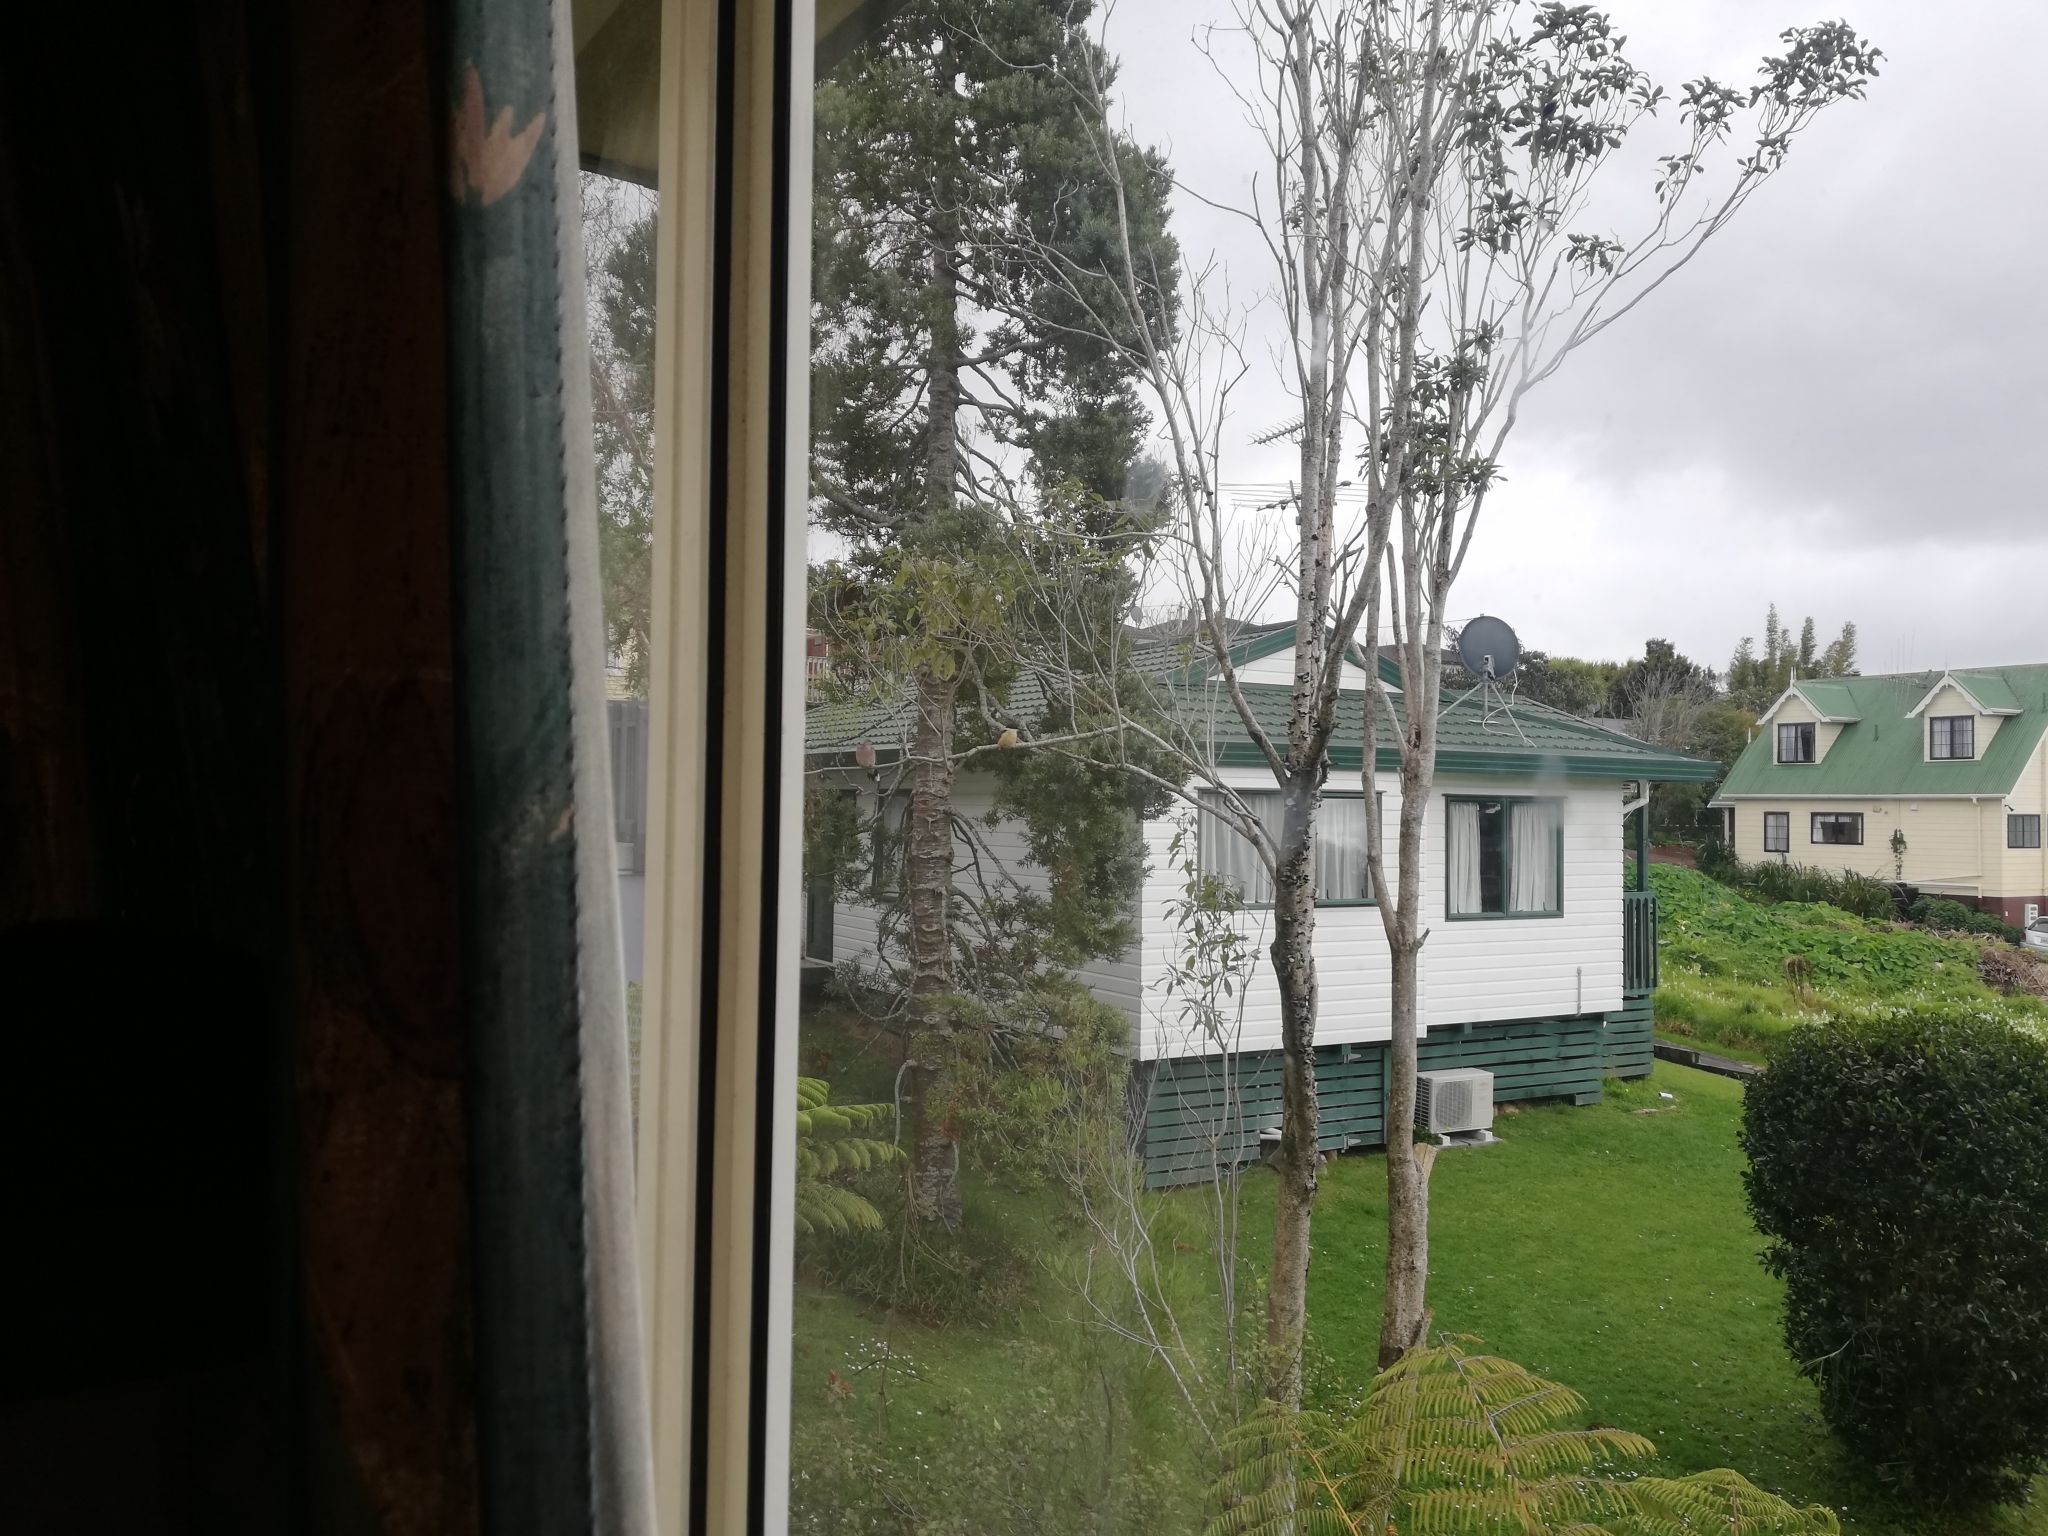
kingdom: Animalia
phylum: Chordata
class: Aves
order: Coraciiformes
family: Alcedinidae
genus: Todiramphus
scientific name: Todiramphus sanctus
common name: Sacred kingfisher
